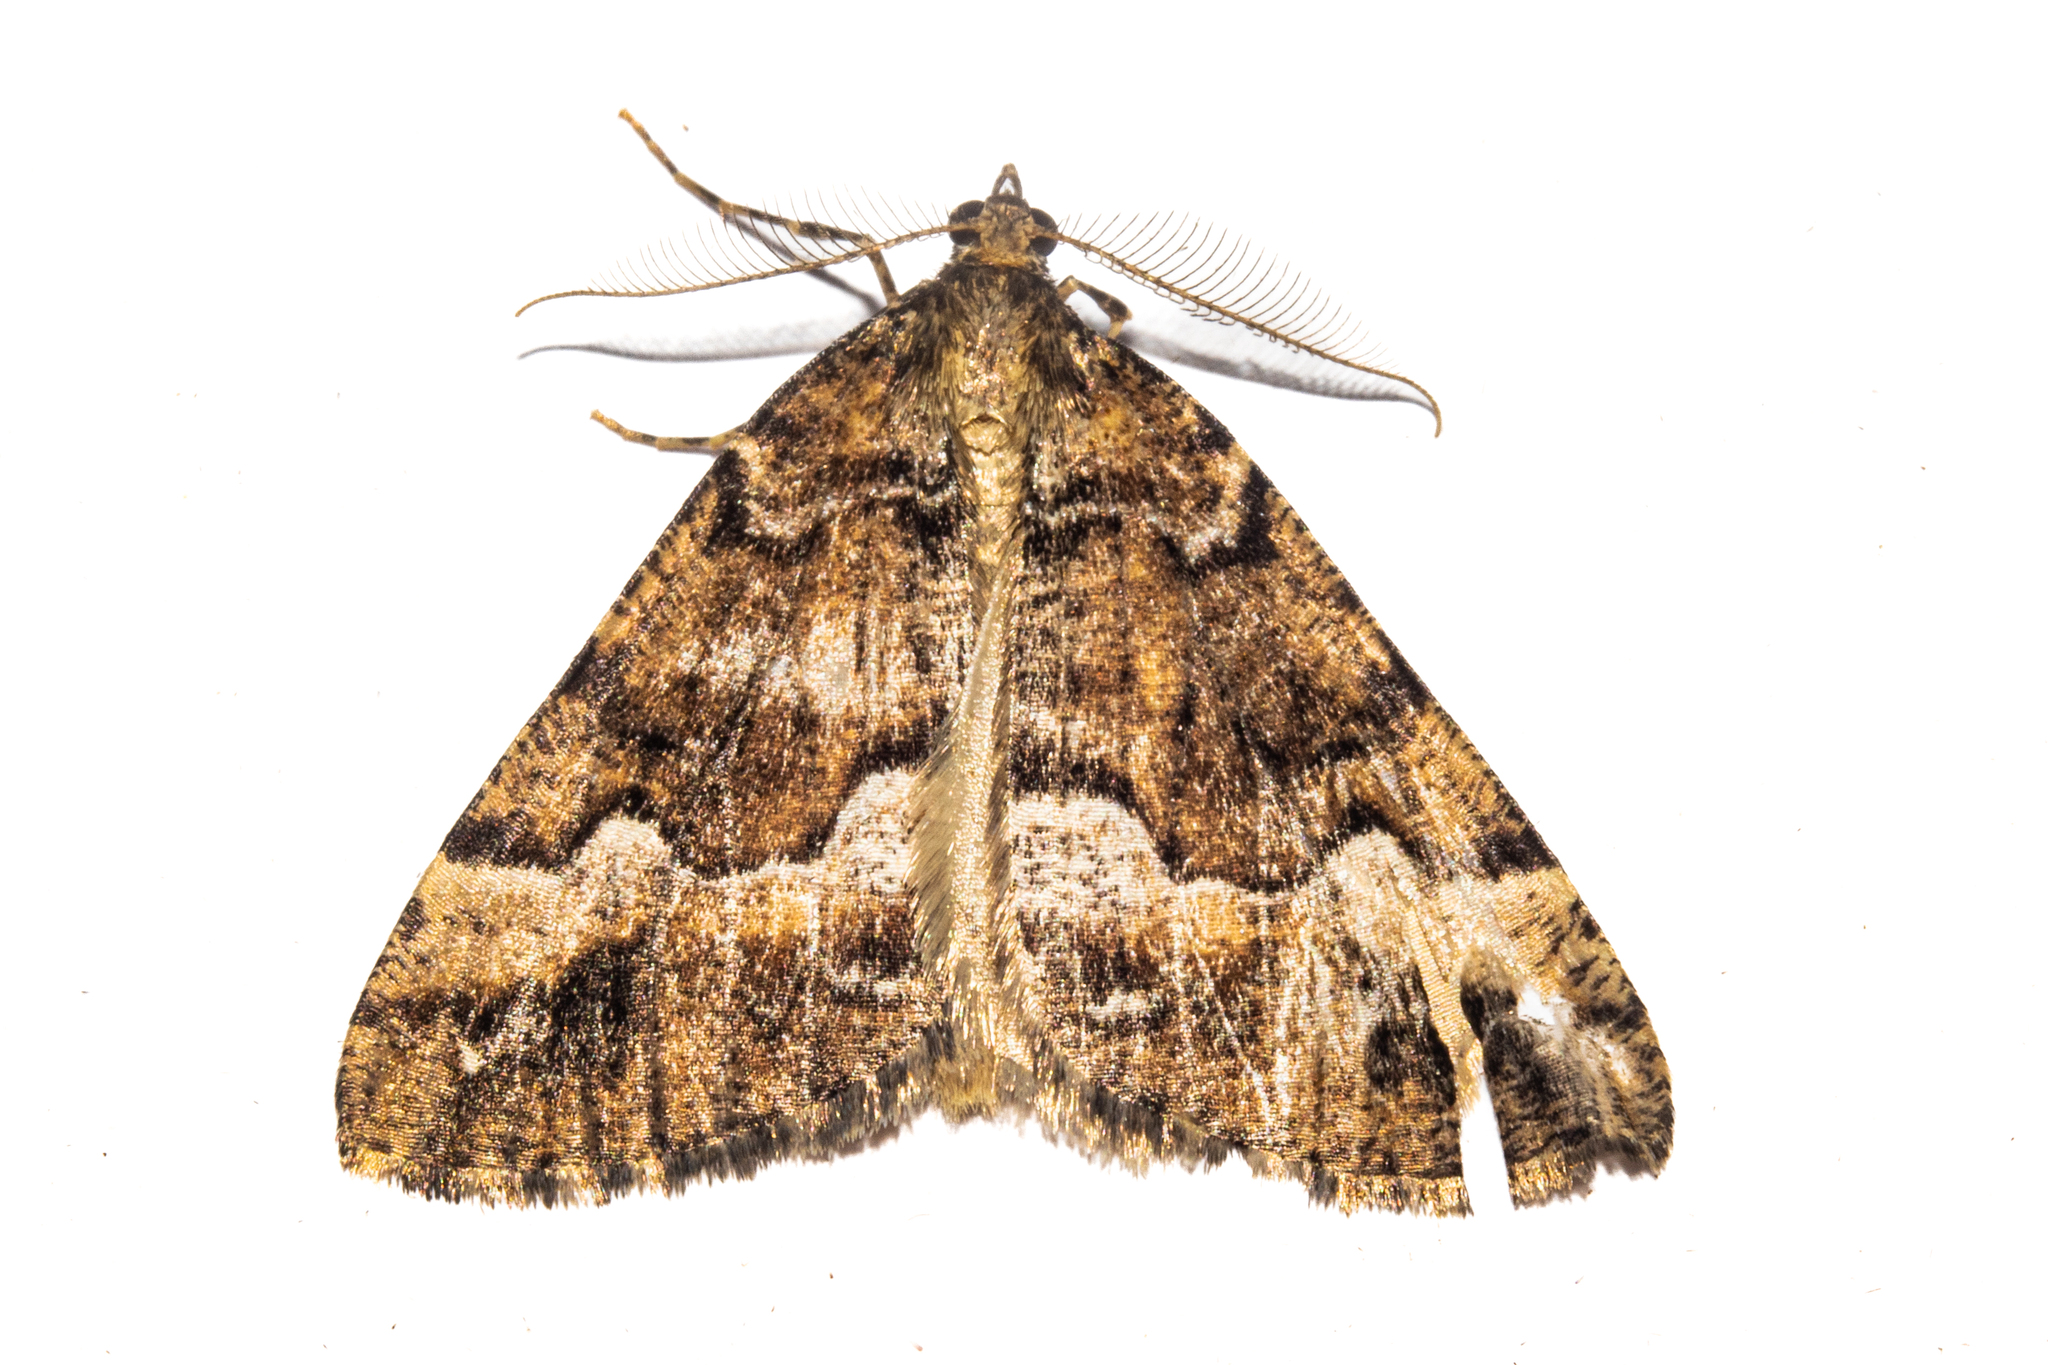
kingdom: Animalia
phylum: Arthropoda
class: Insecta
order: Lepidoptera
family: Geometridae
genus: Pseudocoremia
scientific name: Pseudocoremia colpogramma
